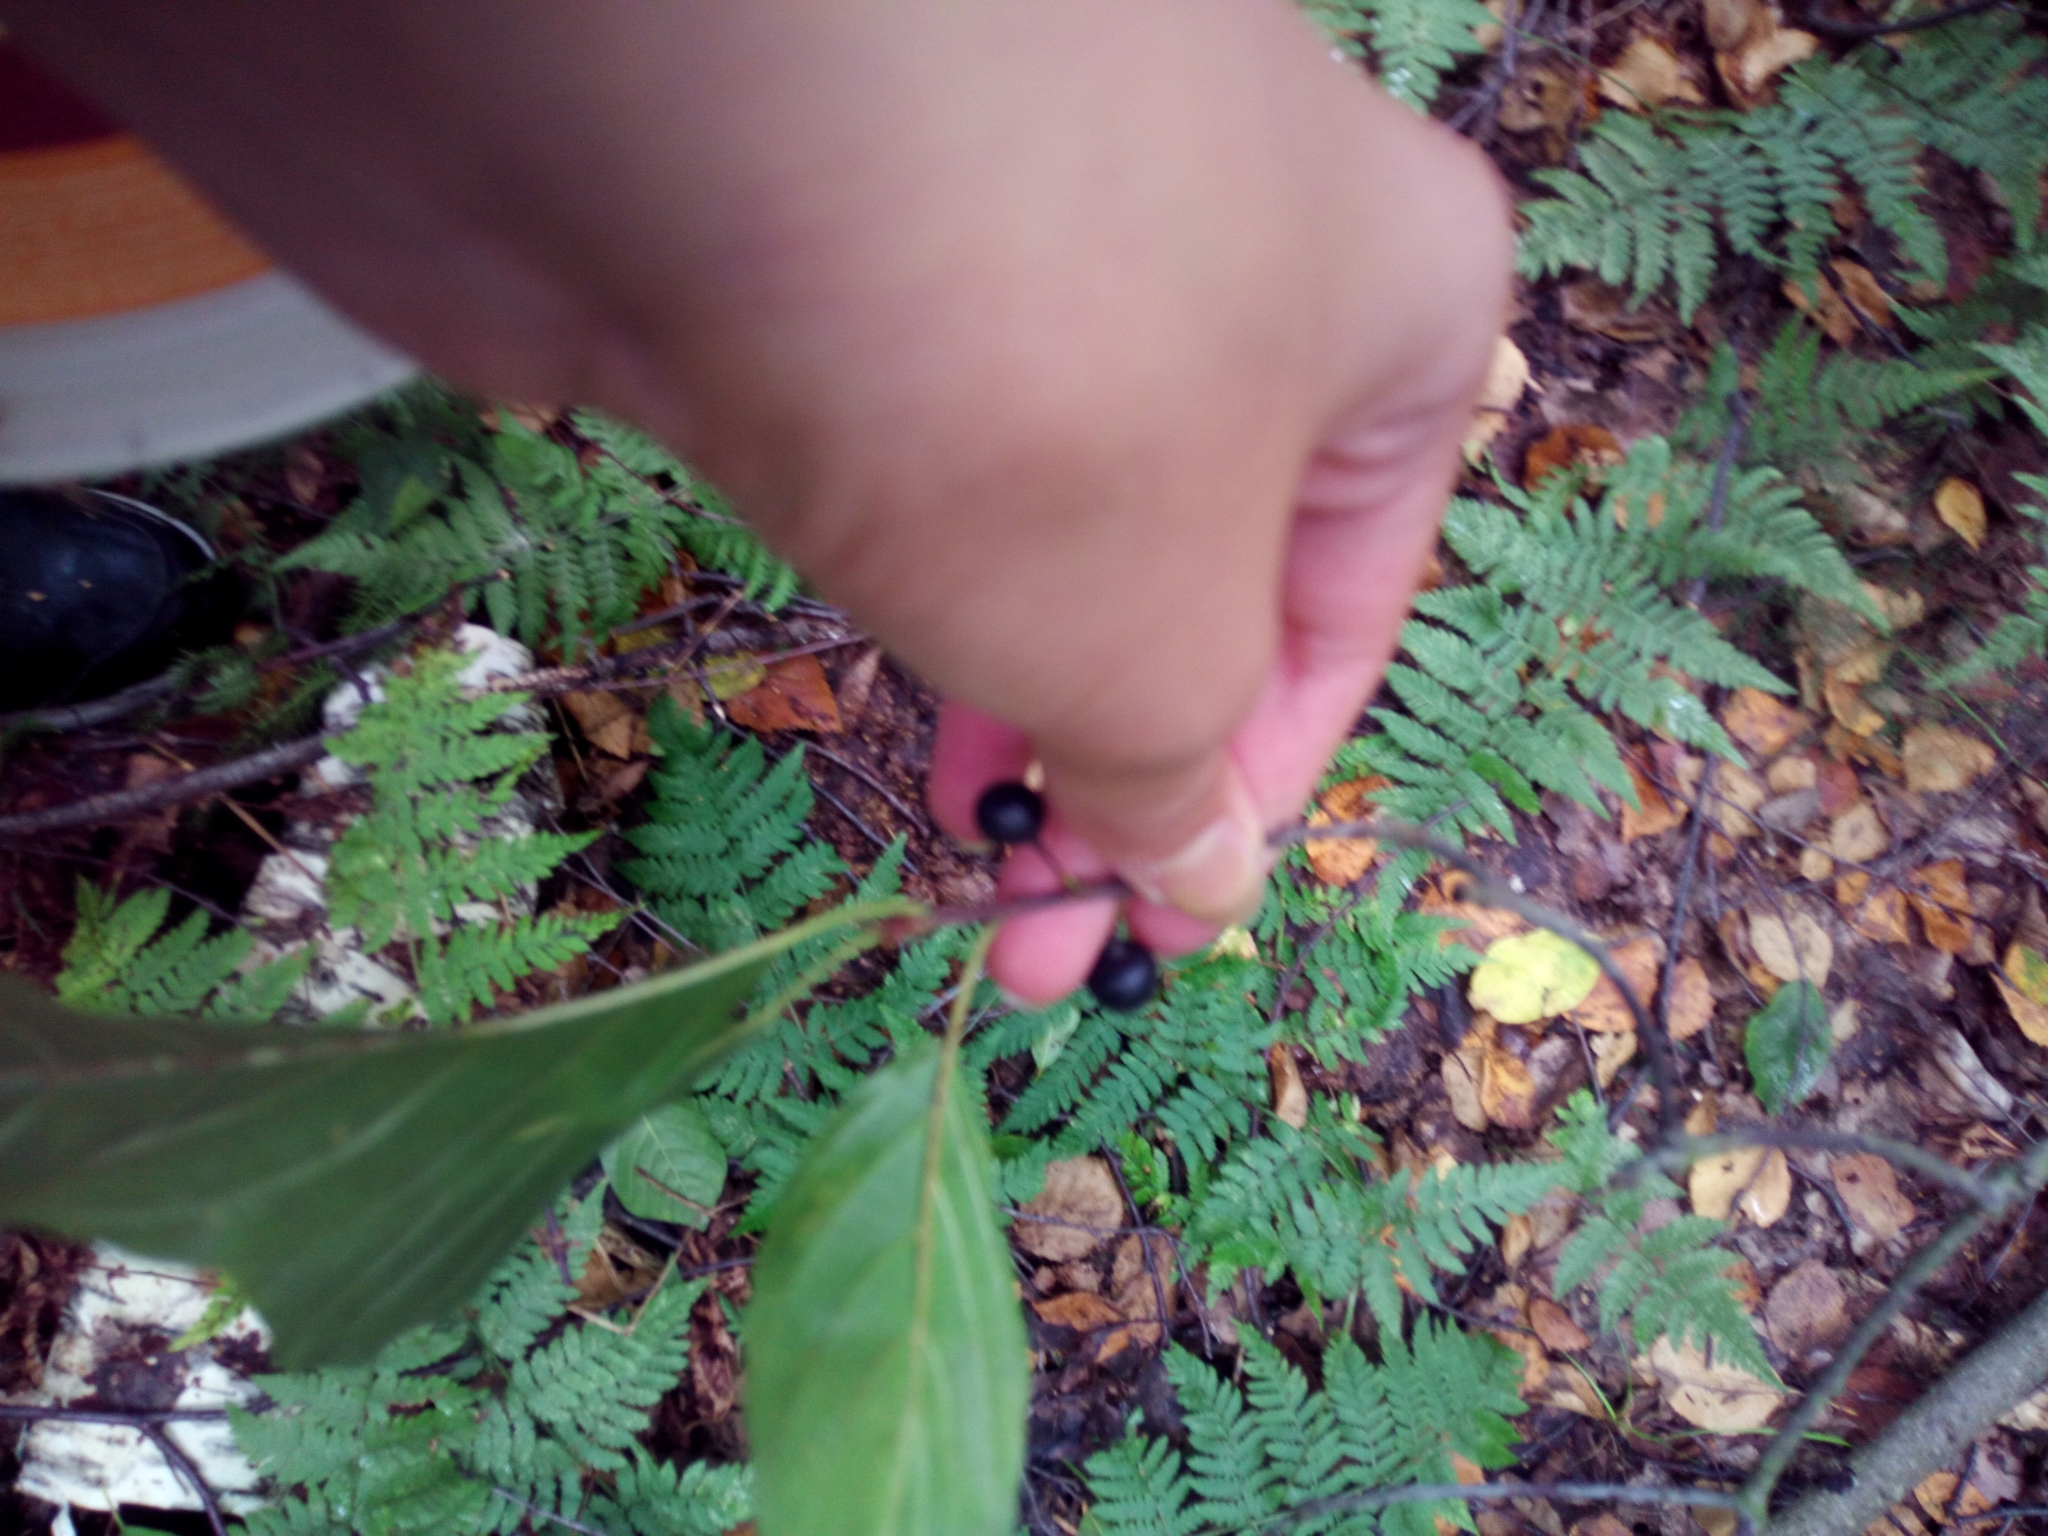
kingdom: Plantae
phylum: Tracheophyta
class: Magnoliopsida
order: Rosales
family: Rhamnaceae
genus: Frangula
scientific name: Frangula alnus
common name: Alder buckthorn
